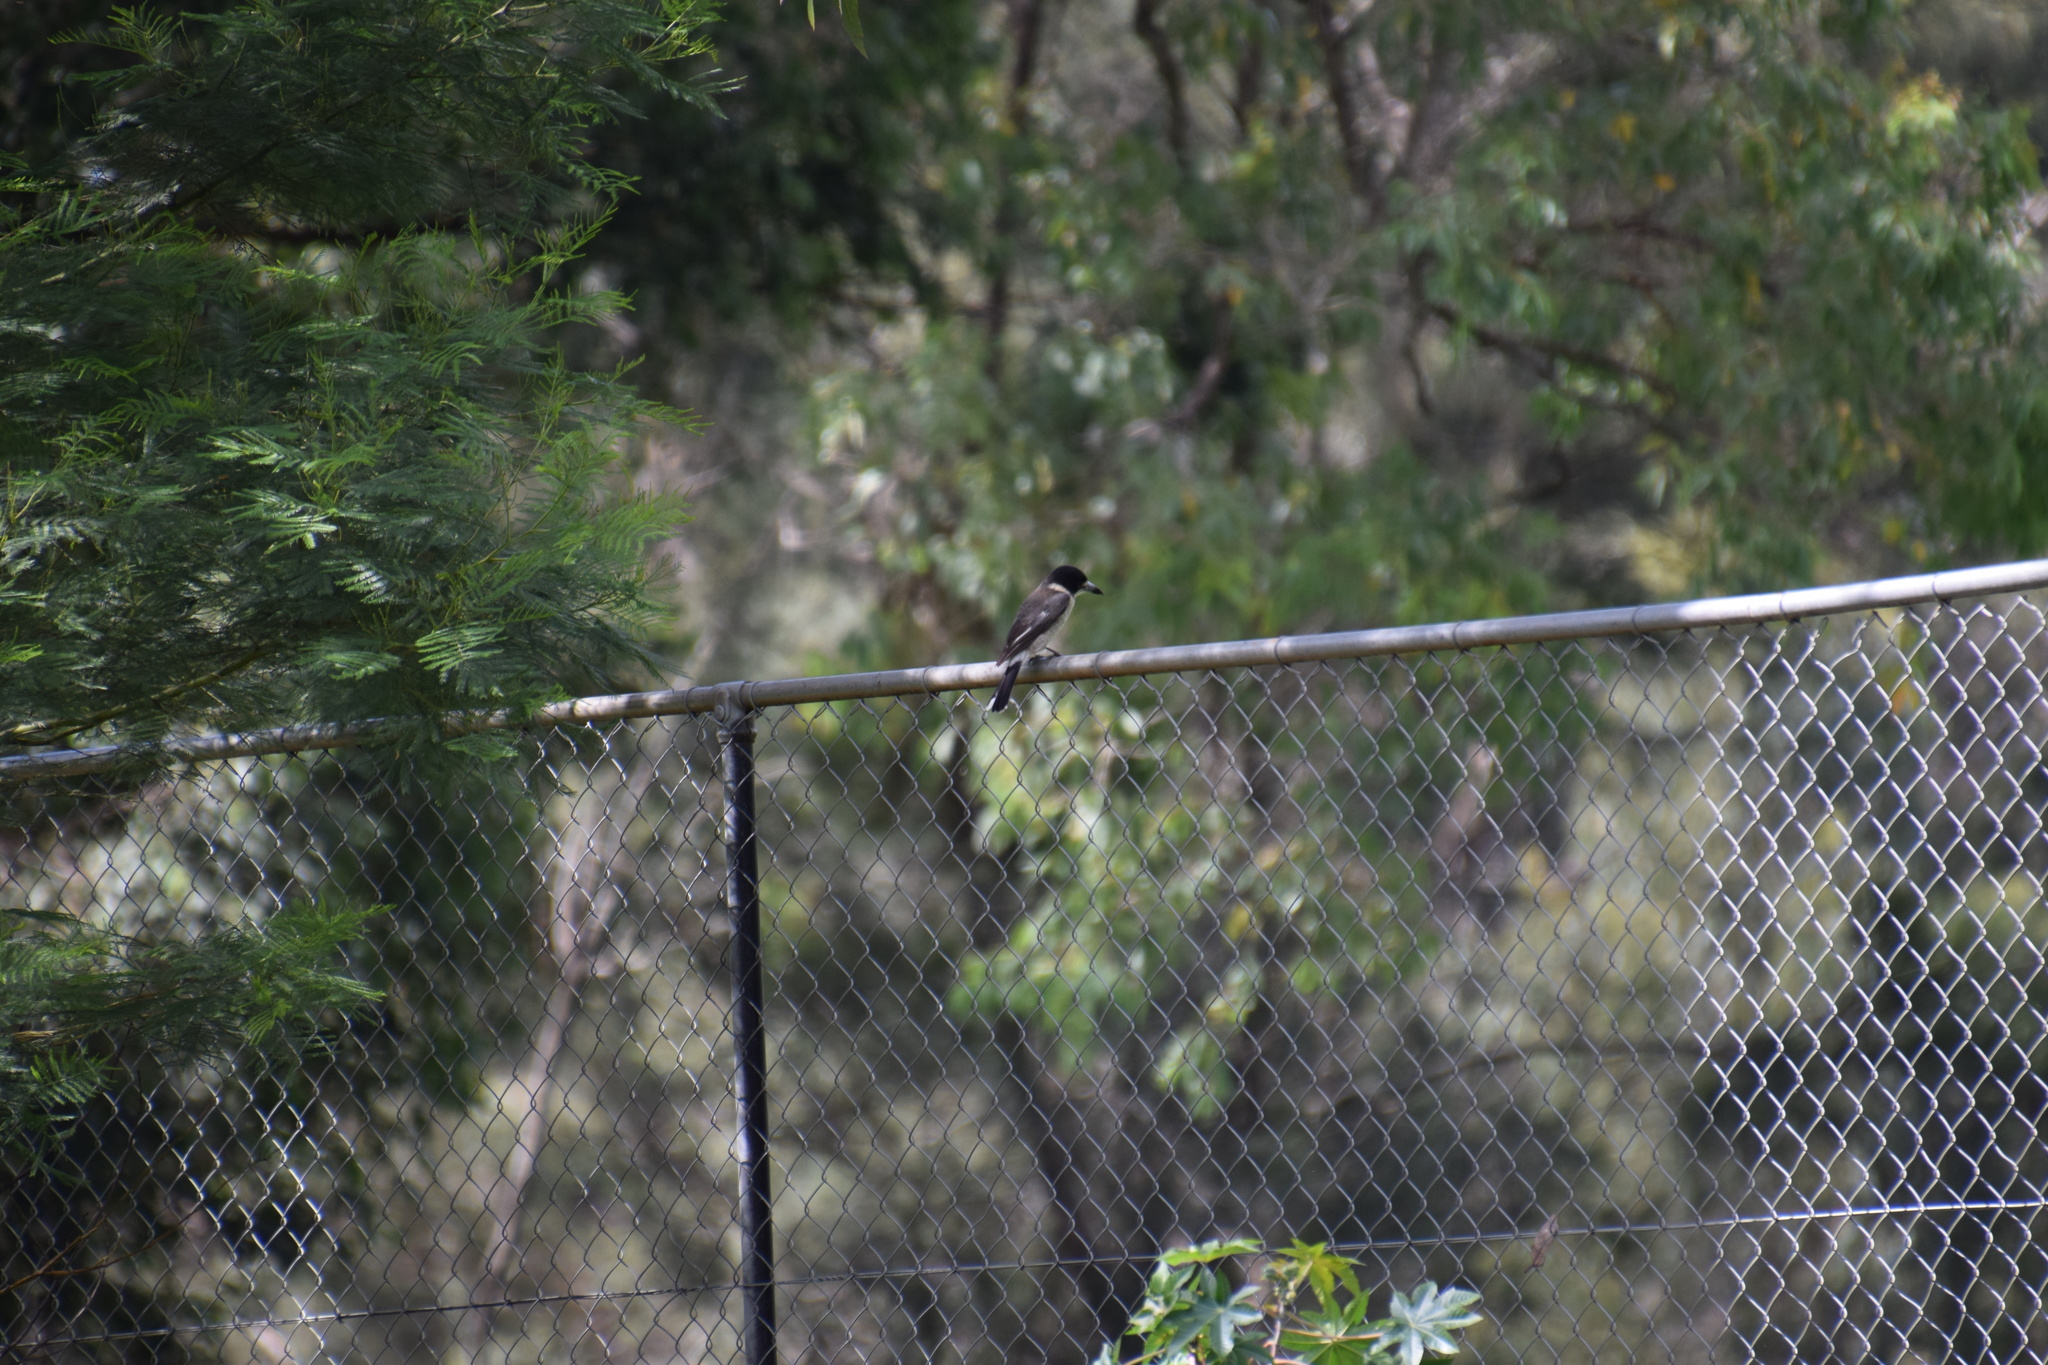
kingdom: Animalia
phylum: Chordata
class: Aves
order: Passeriformes
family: Cracticidae
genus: Cracticus
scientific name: Cracticus torquatus
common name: Grey butcherbird
